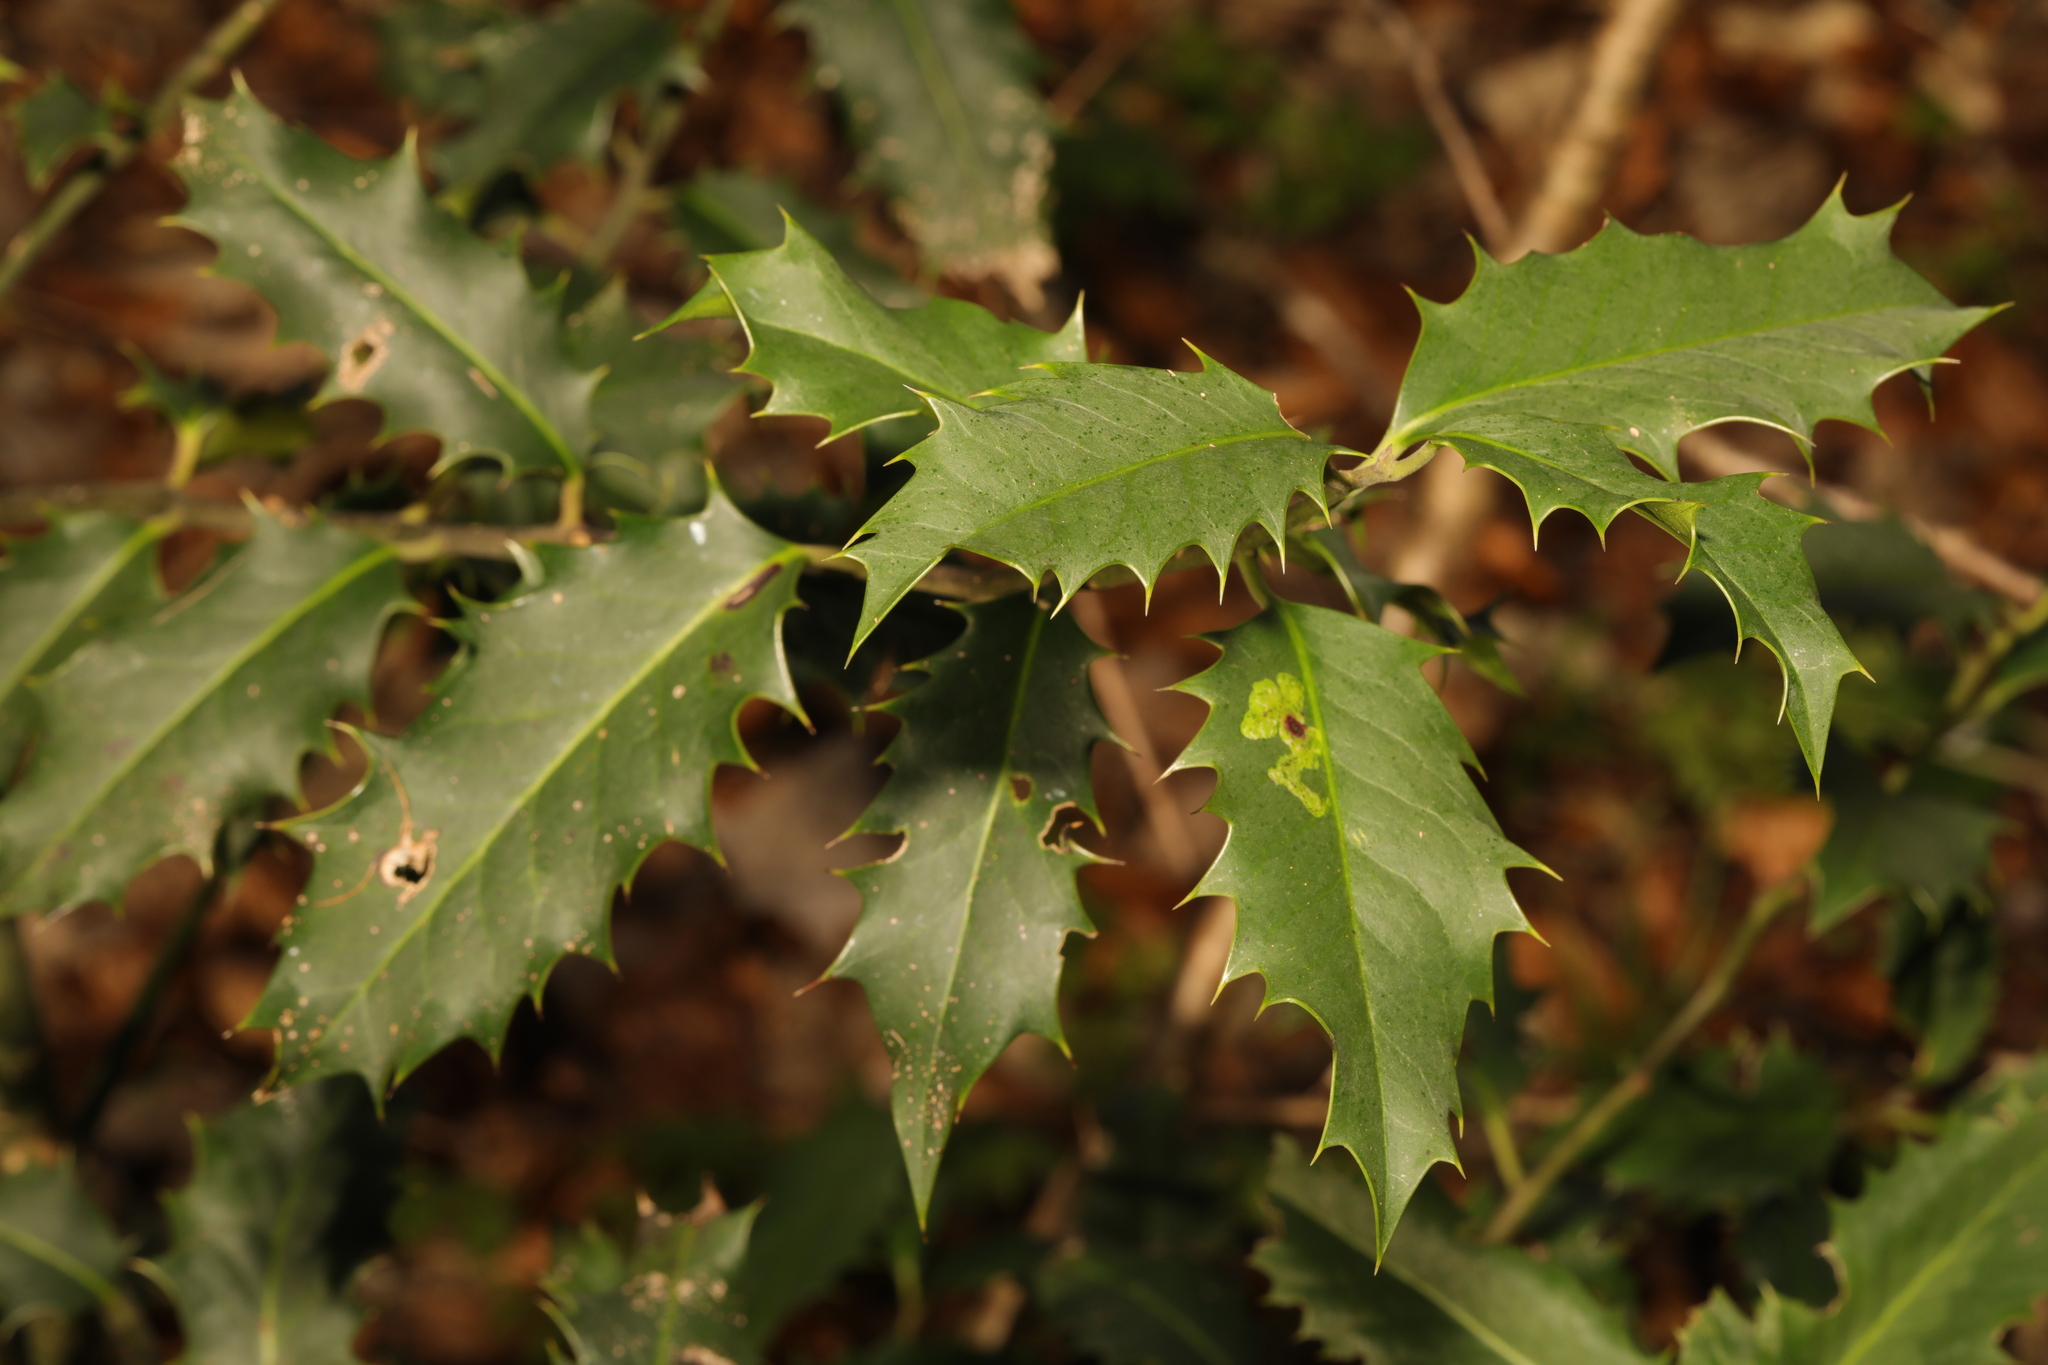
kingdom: Plantae
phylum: Tracheophyta
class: Magnoliopsida
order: Aquifoliales
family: Aquifoliaceae
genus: Ilex
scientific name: Ilex aquifolium
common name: English holly
